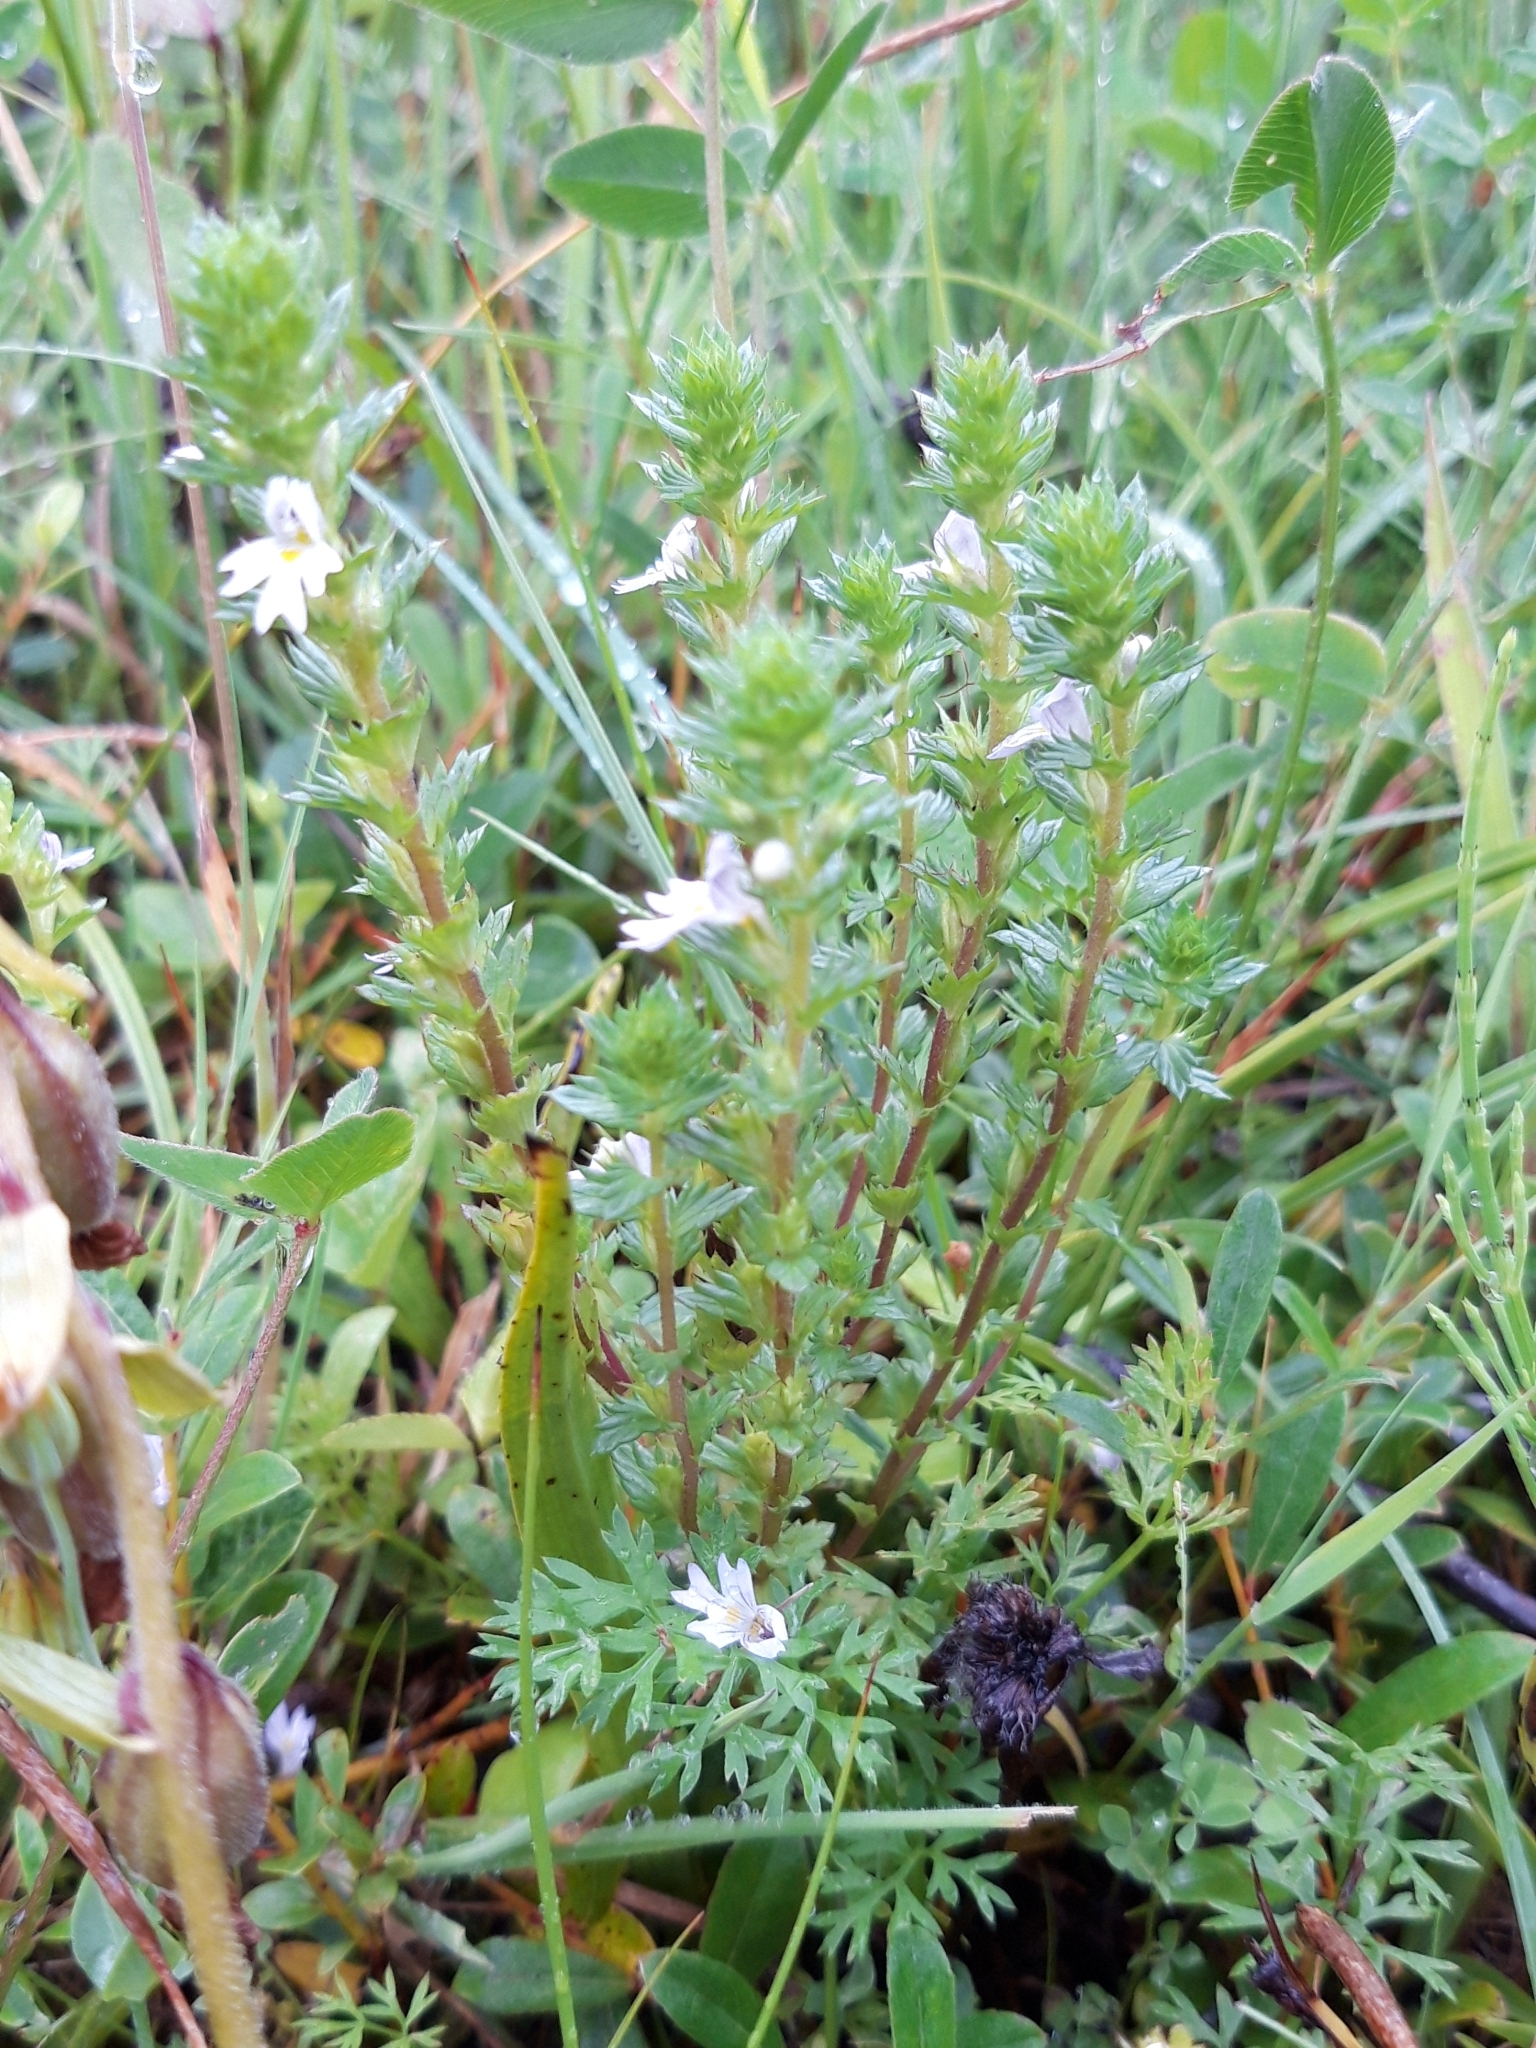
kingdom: Plantae
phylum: Tracheophyta
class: Magnoliopsida
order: Lamiales
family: Orobanchaceae
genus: Euphrasia
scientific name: Euphrasia stricta
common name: Drug eyebright
